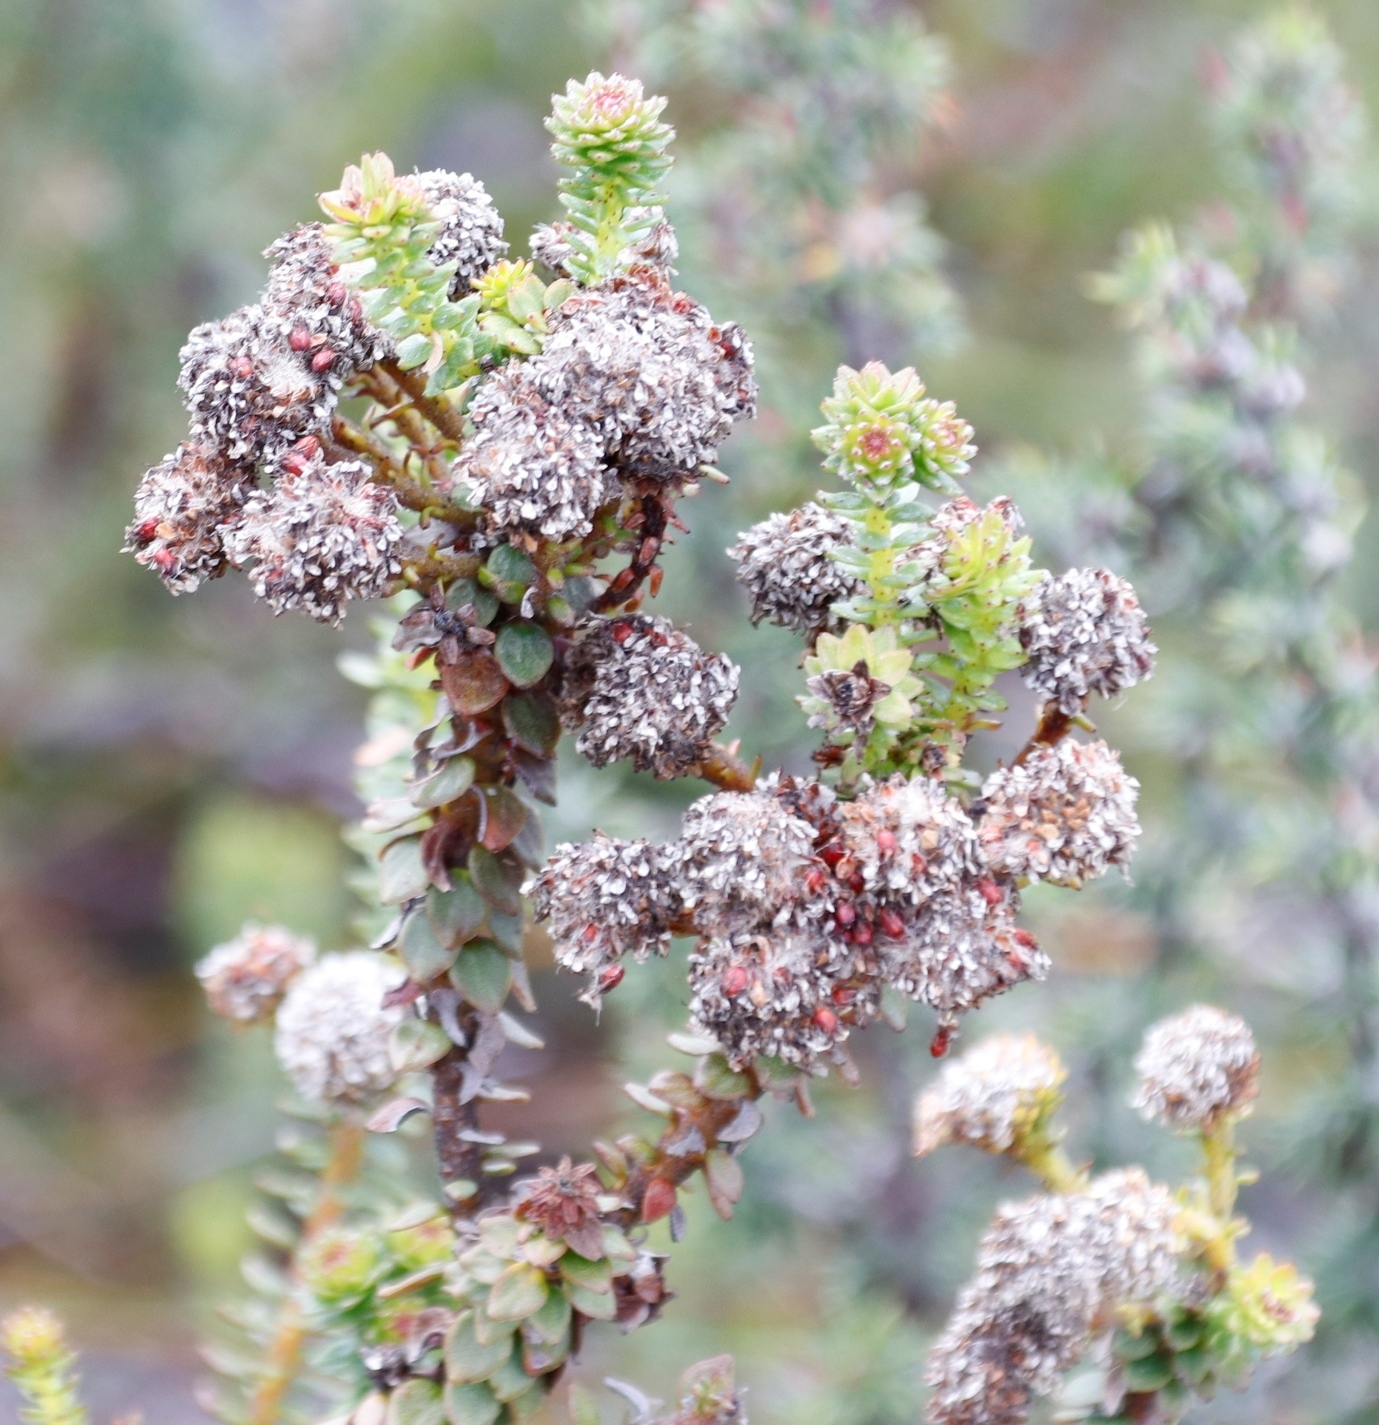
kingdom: Plantae
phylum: Tracheophyta
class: Magnoliopsida
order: Bruniales
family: Bruniaceae
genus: Berzelia
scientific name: Berzelia cordifolia
